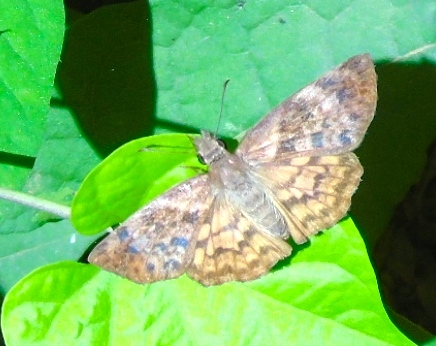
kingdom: Animalia
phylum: Arthropoda
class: Insecta
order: Lepidoptera
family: Hesperiidae
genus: Timochares
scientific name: Timochares ruptifasciata
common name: Brown-banded skipper
